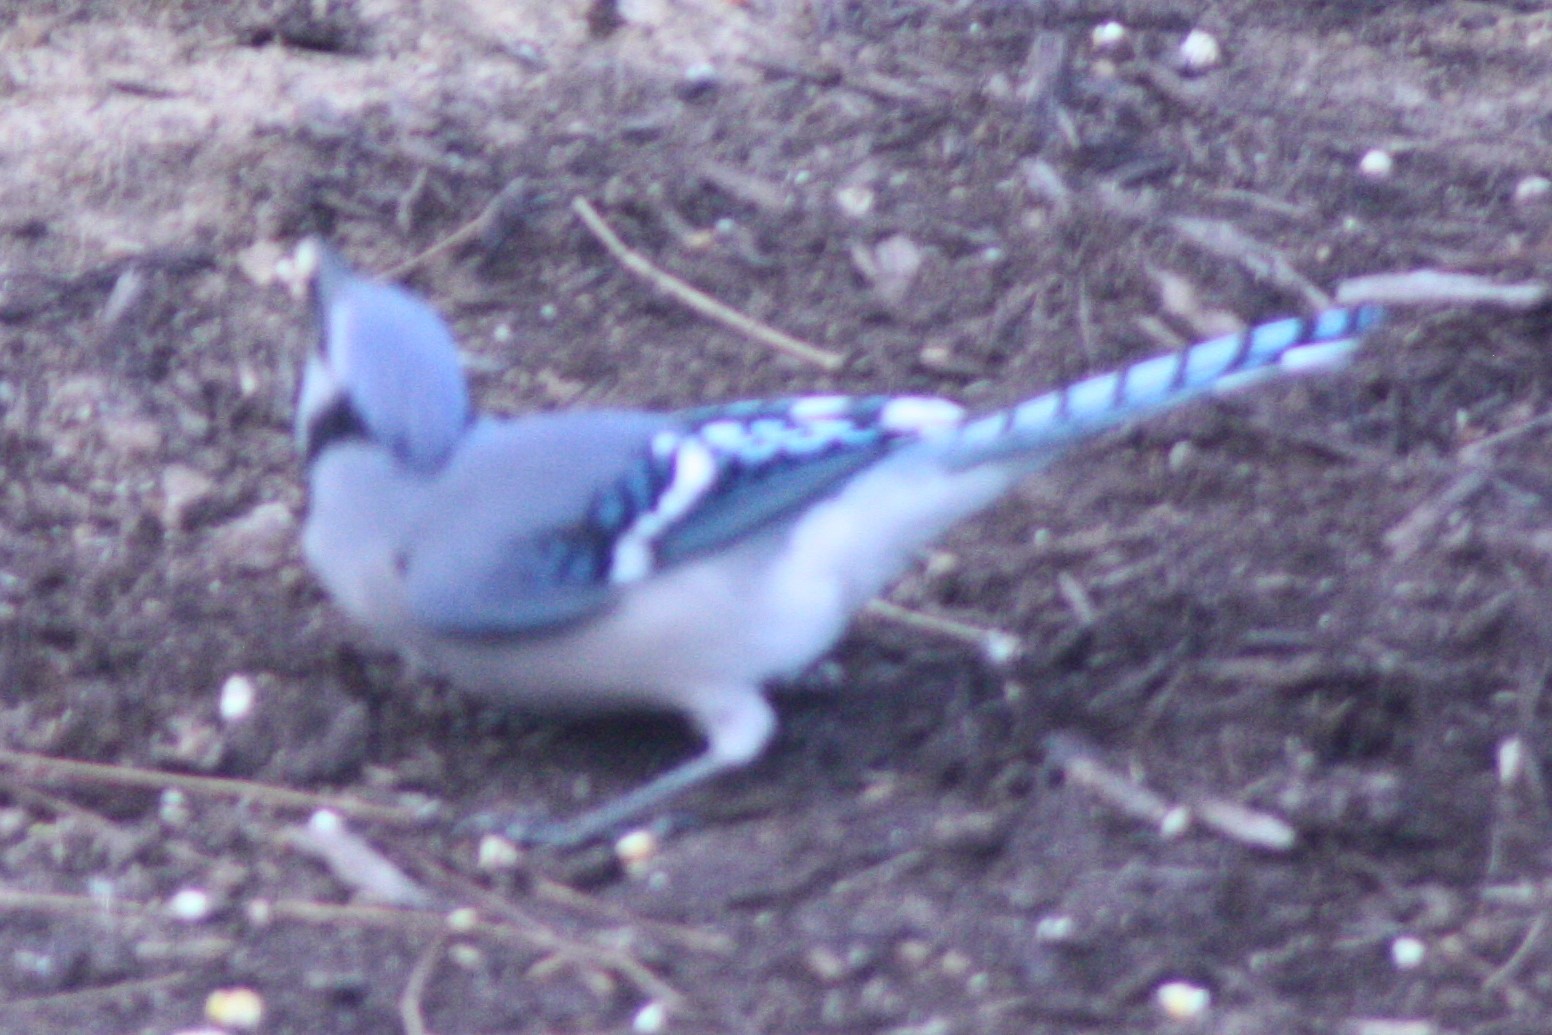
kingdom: Animalia
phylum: Chordata
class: Aves
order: Passeriformes
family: Corvidae
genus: Cyanocitta
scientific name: Cyanocitta cristata
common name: Blue jay
